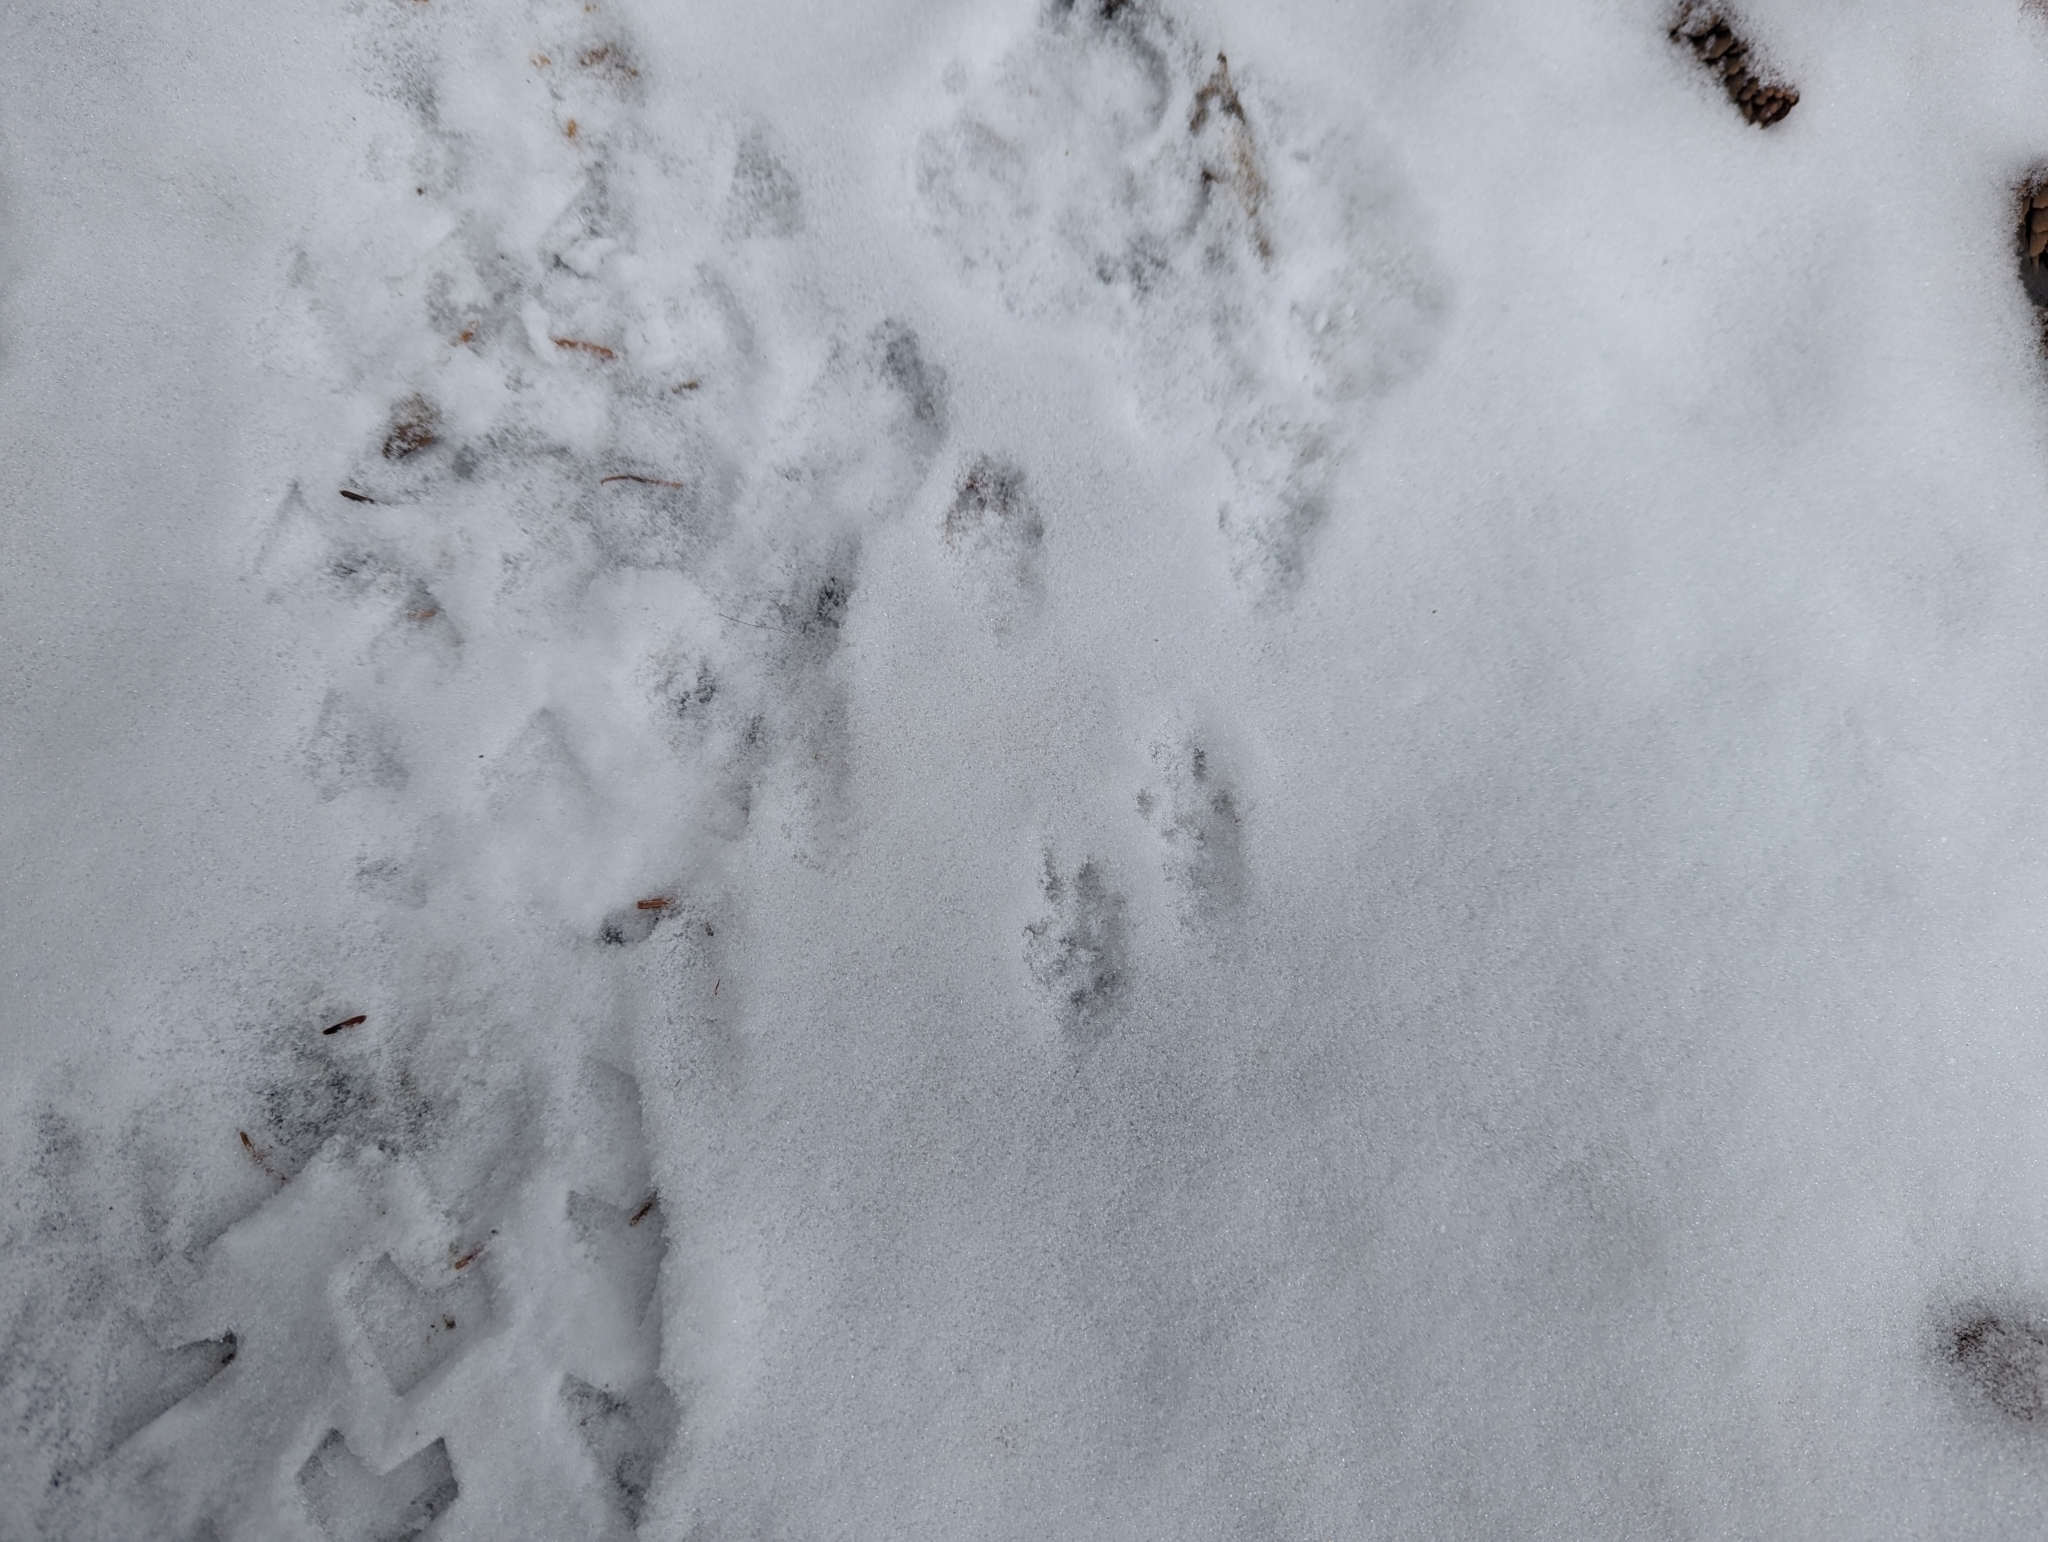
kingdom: Animalia
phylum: Chordata
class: Mammalia
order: Rodentia
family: Sciuridae
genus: Tamiasciurus
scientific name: Tamiasciurus hudsonicus
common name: Red squirrel
